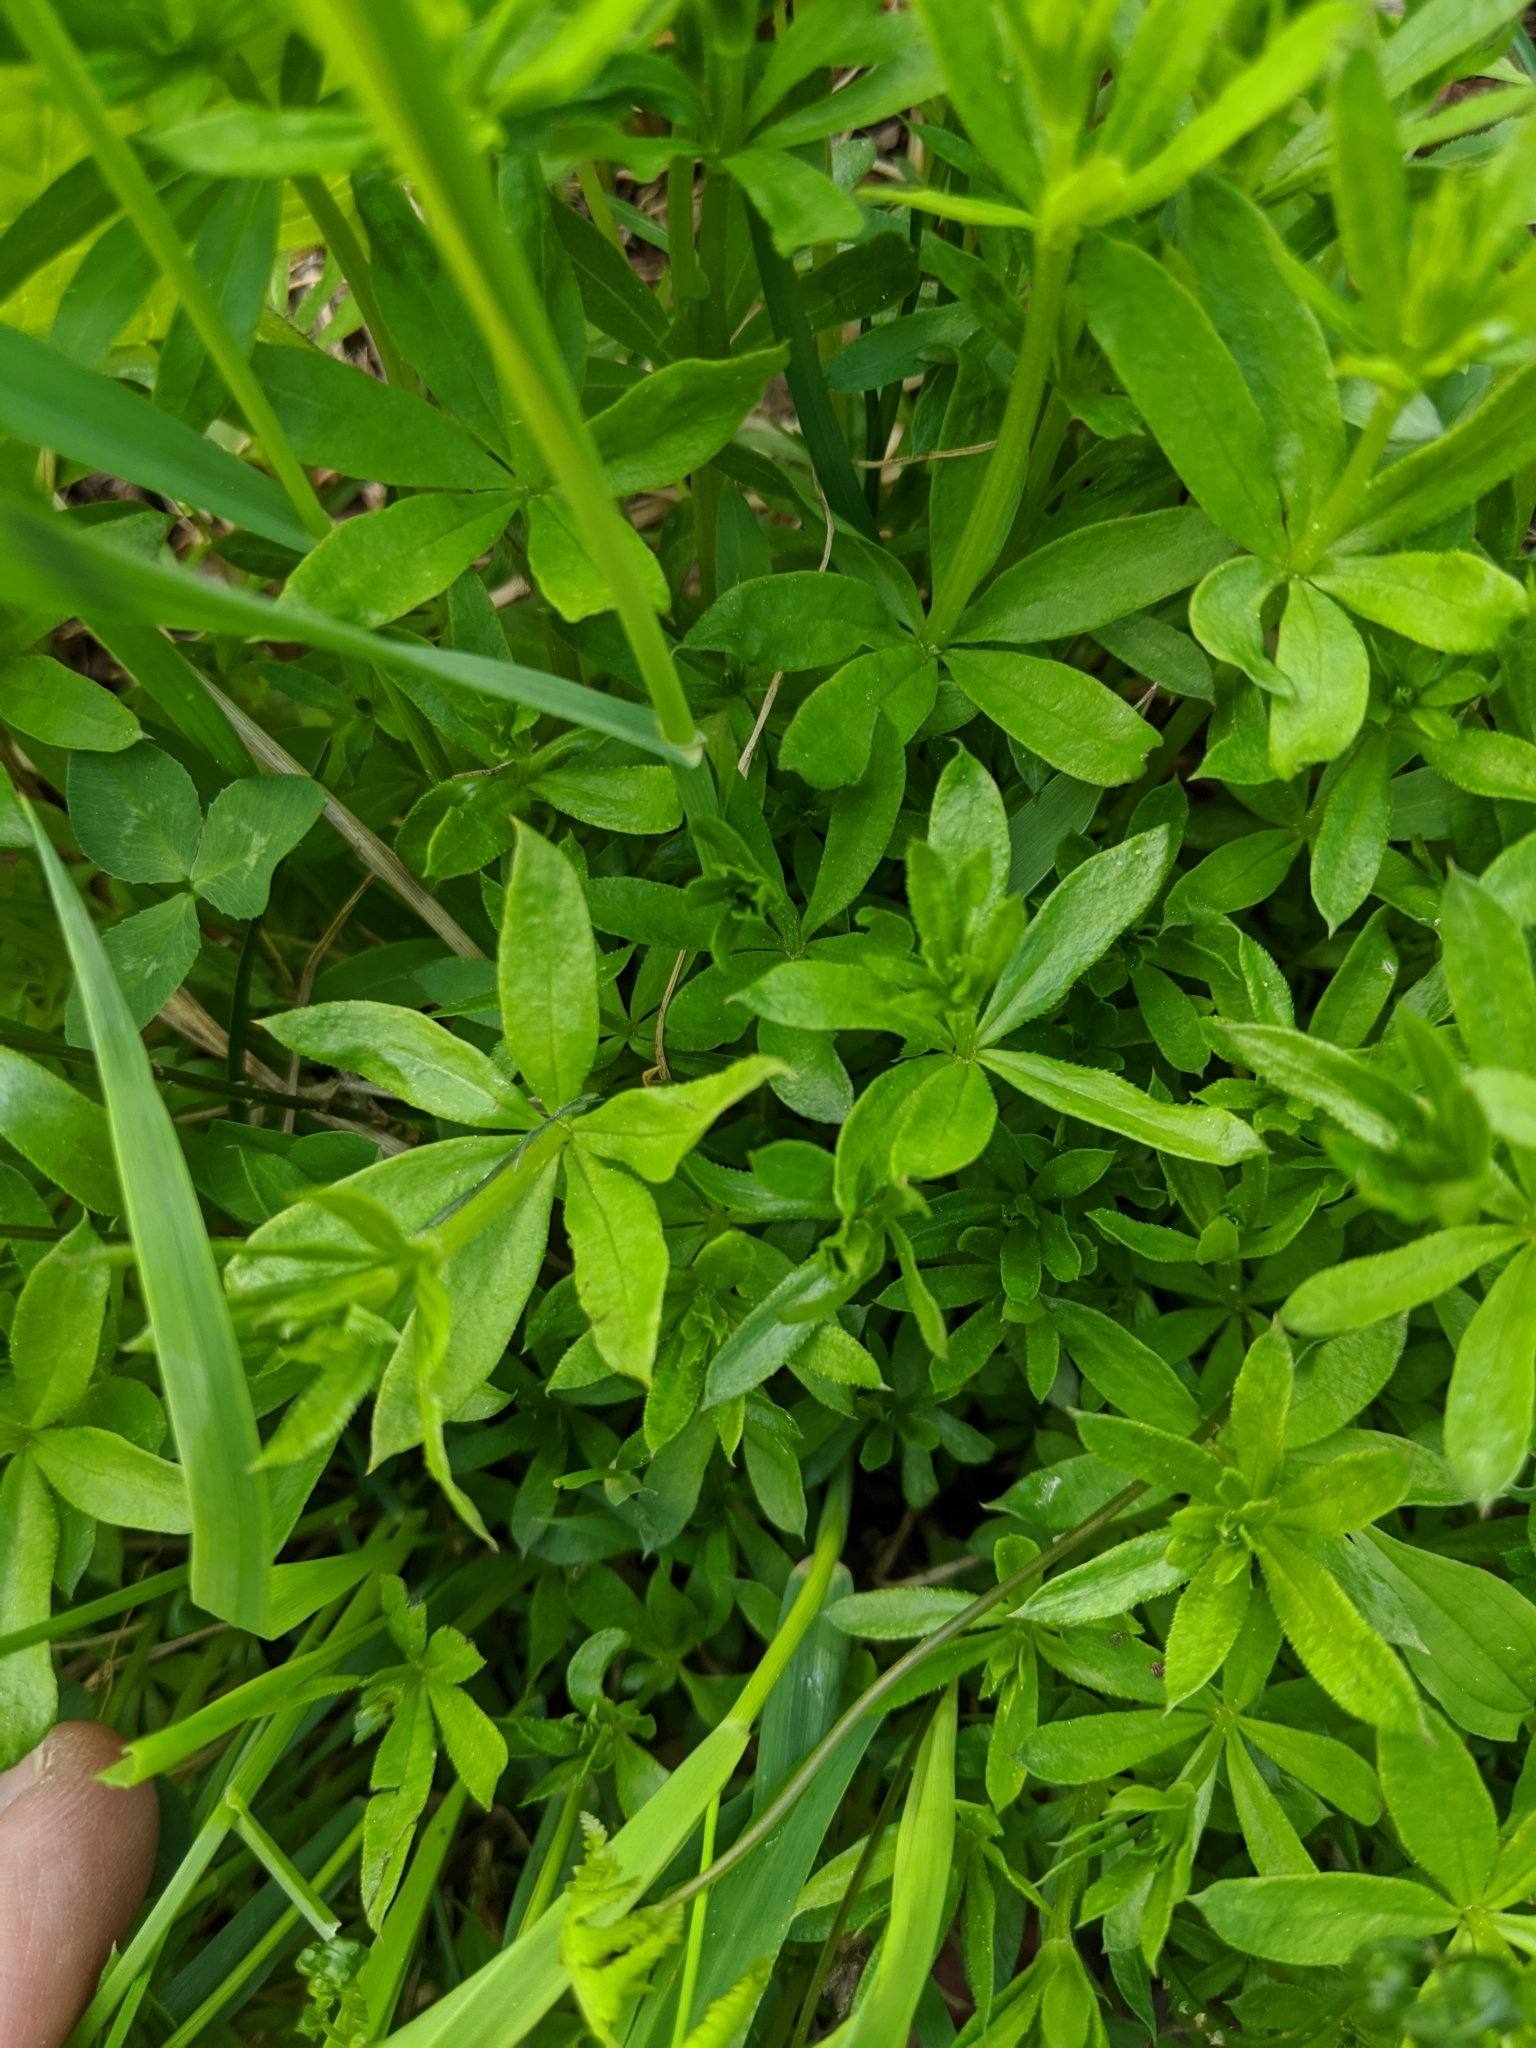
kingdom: Plantae
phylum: Tracheophyta
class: Magnoliopsida
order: Gentianales
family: Rubiaceae
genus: Galium
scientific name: Galium triflorum
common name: Fragrant bedstraw
